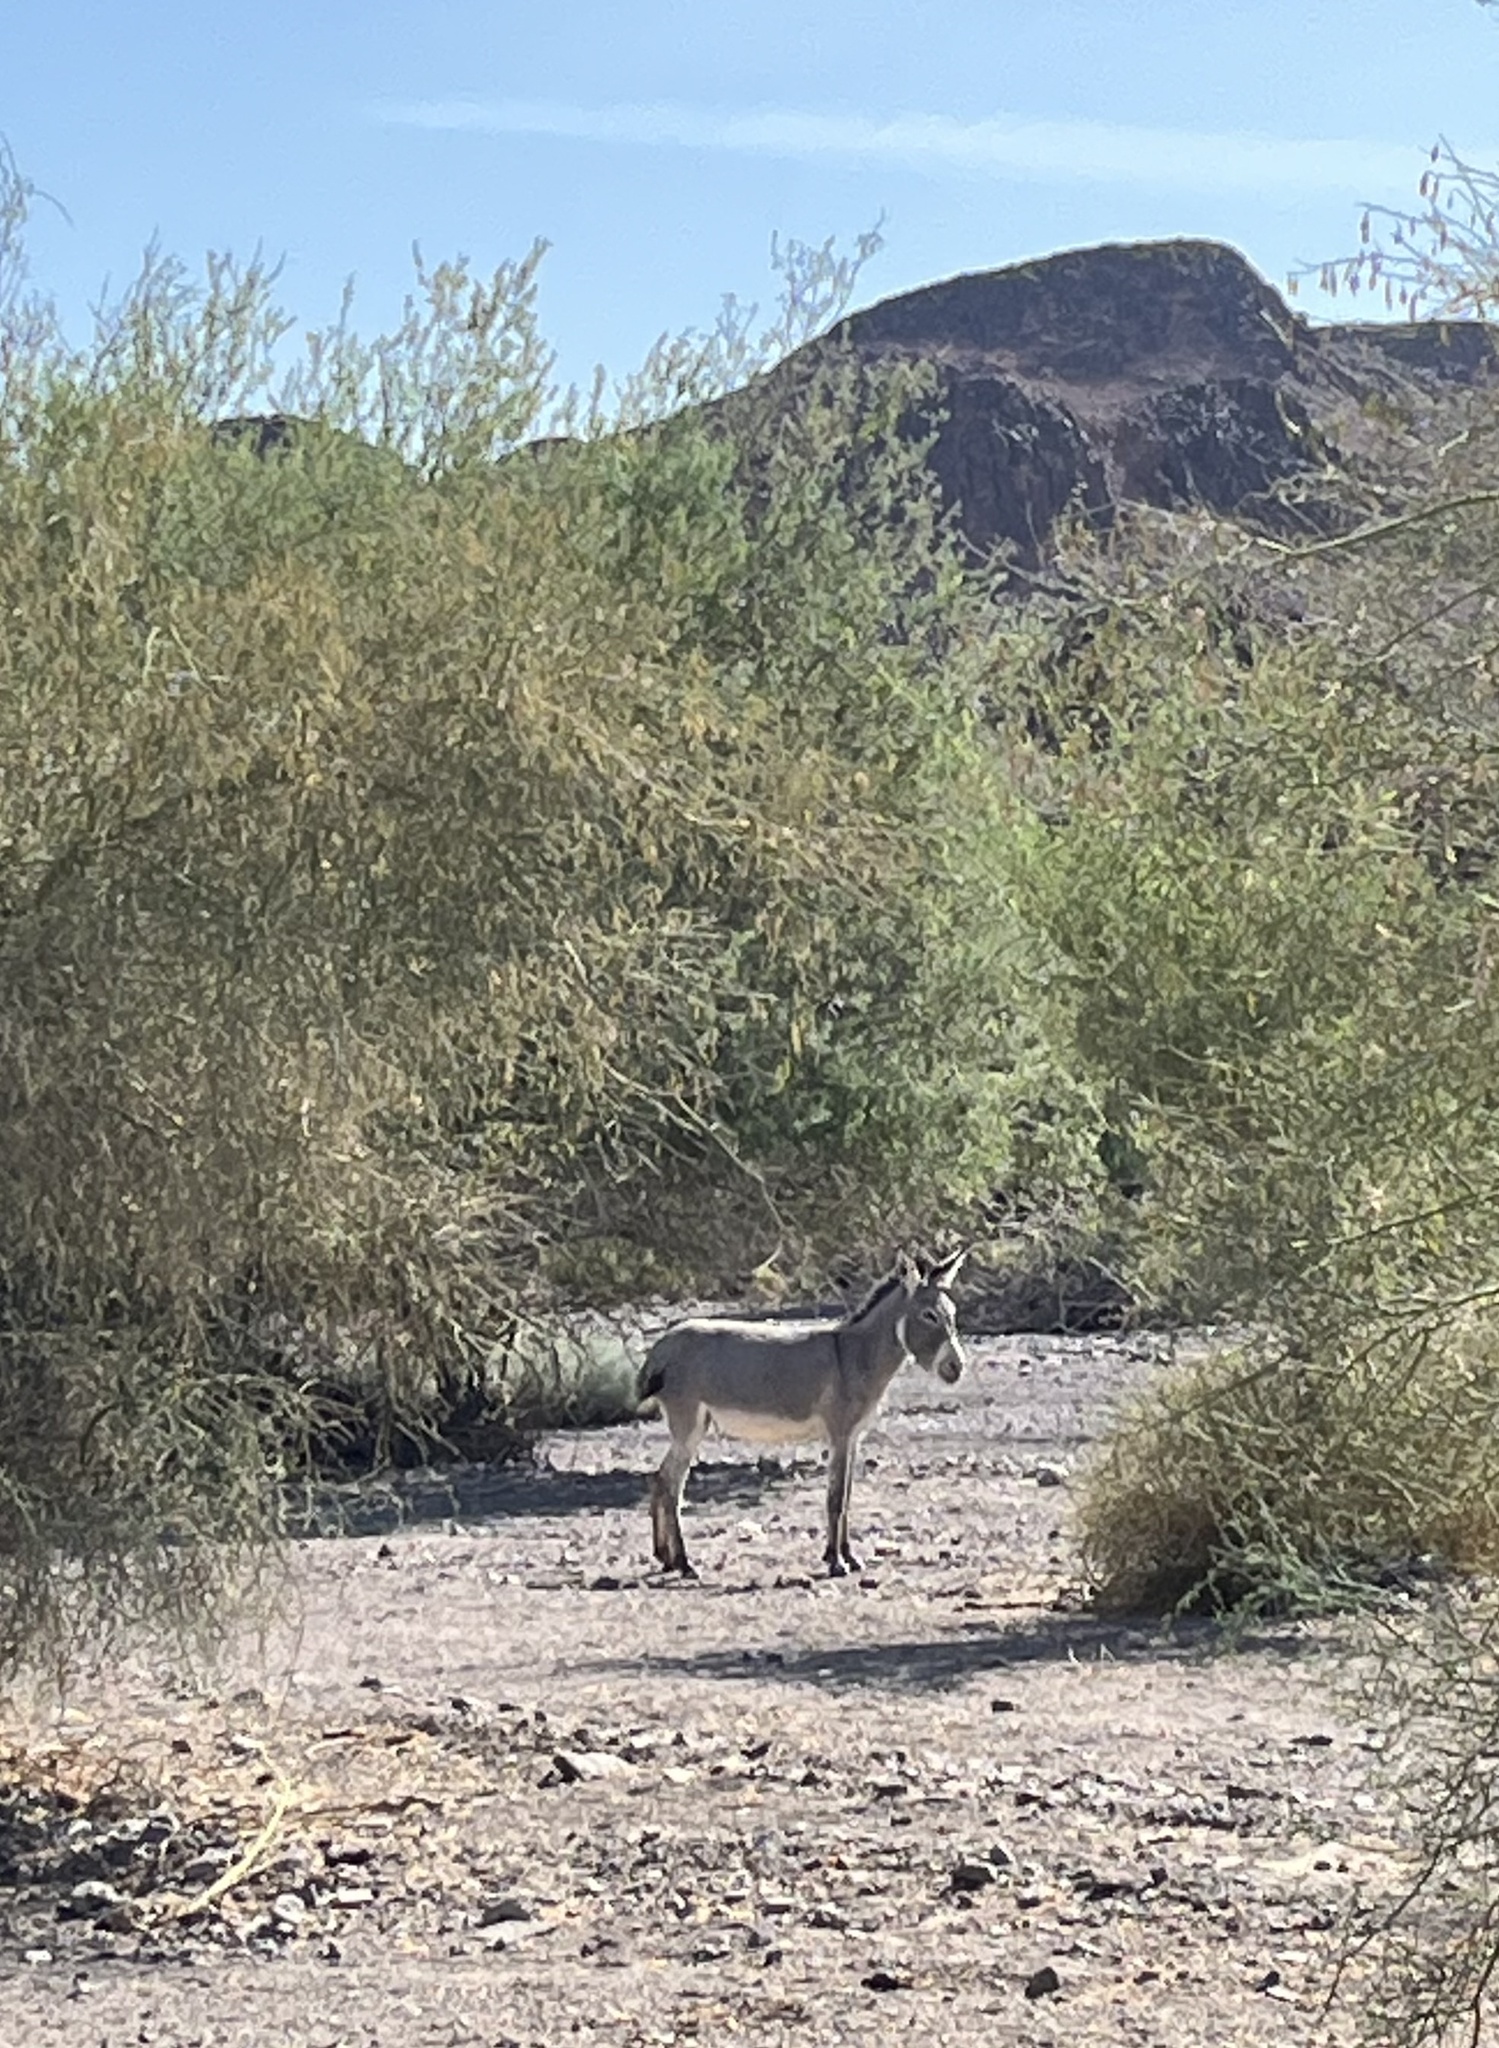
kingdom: Animalia
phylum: Chordata
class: Mammalia
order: Perissodactyla
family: Equidae
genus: Equus
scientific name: Equus asinus
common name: Ass
